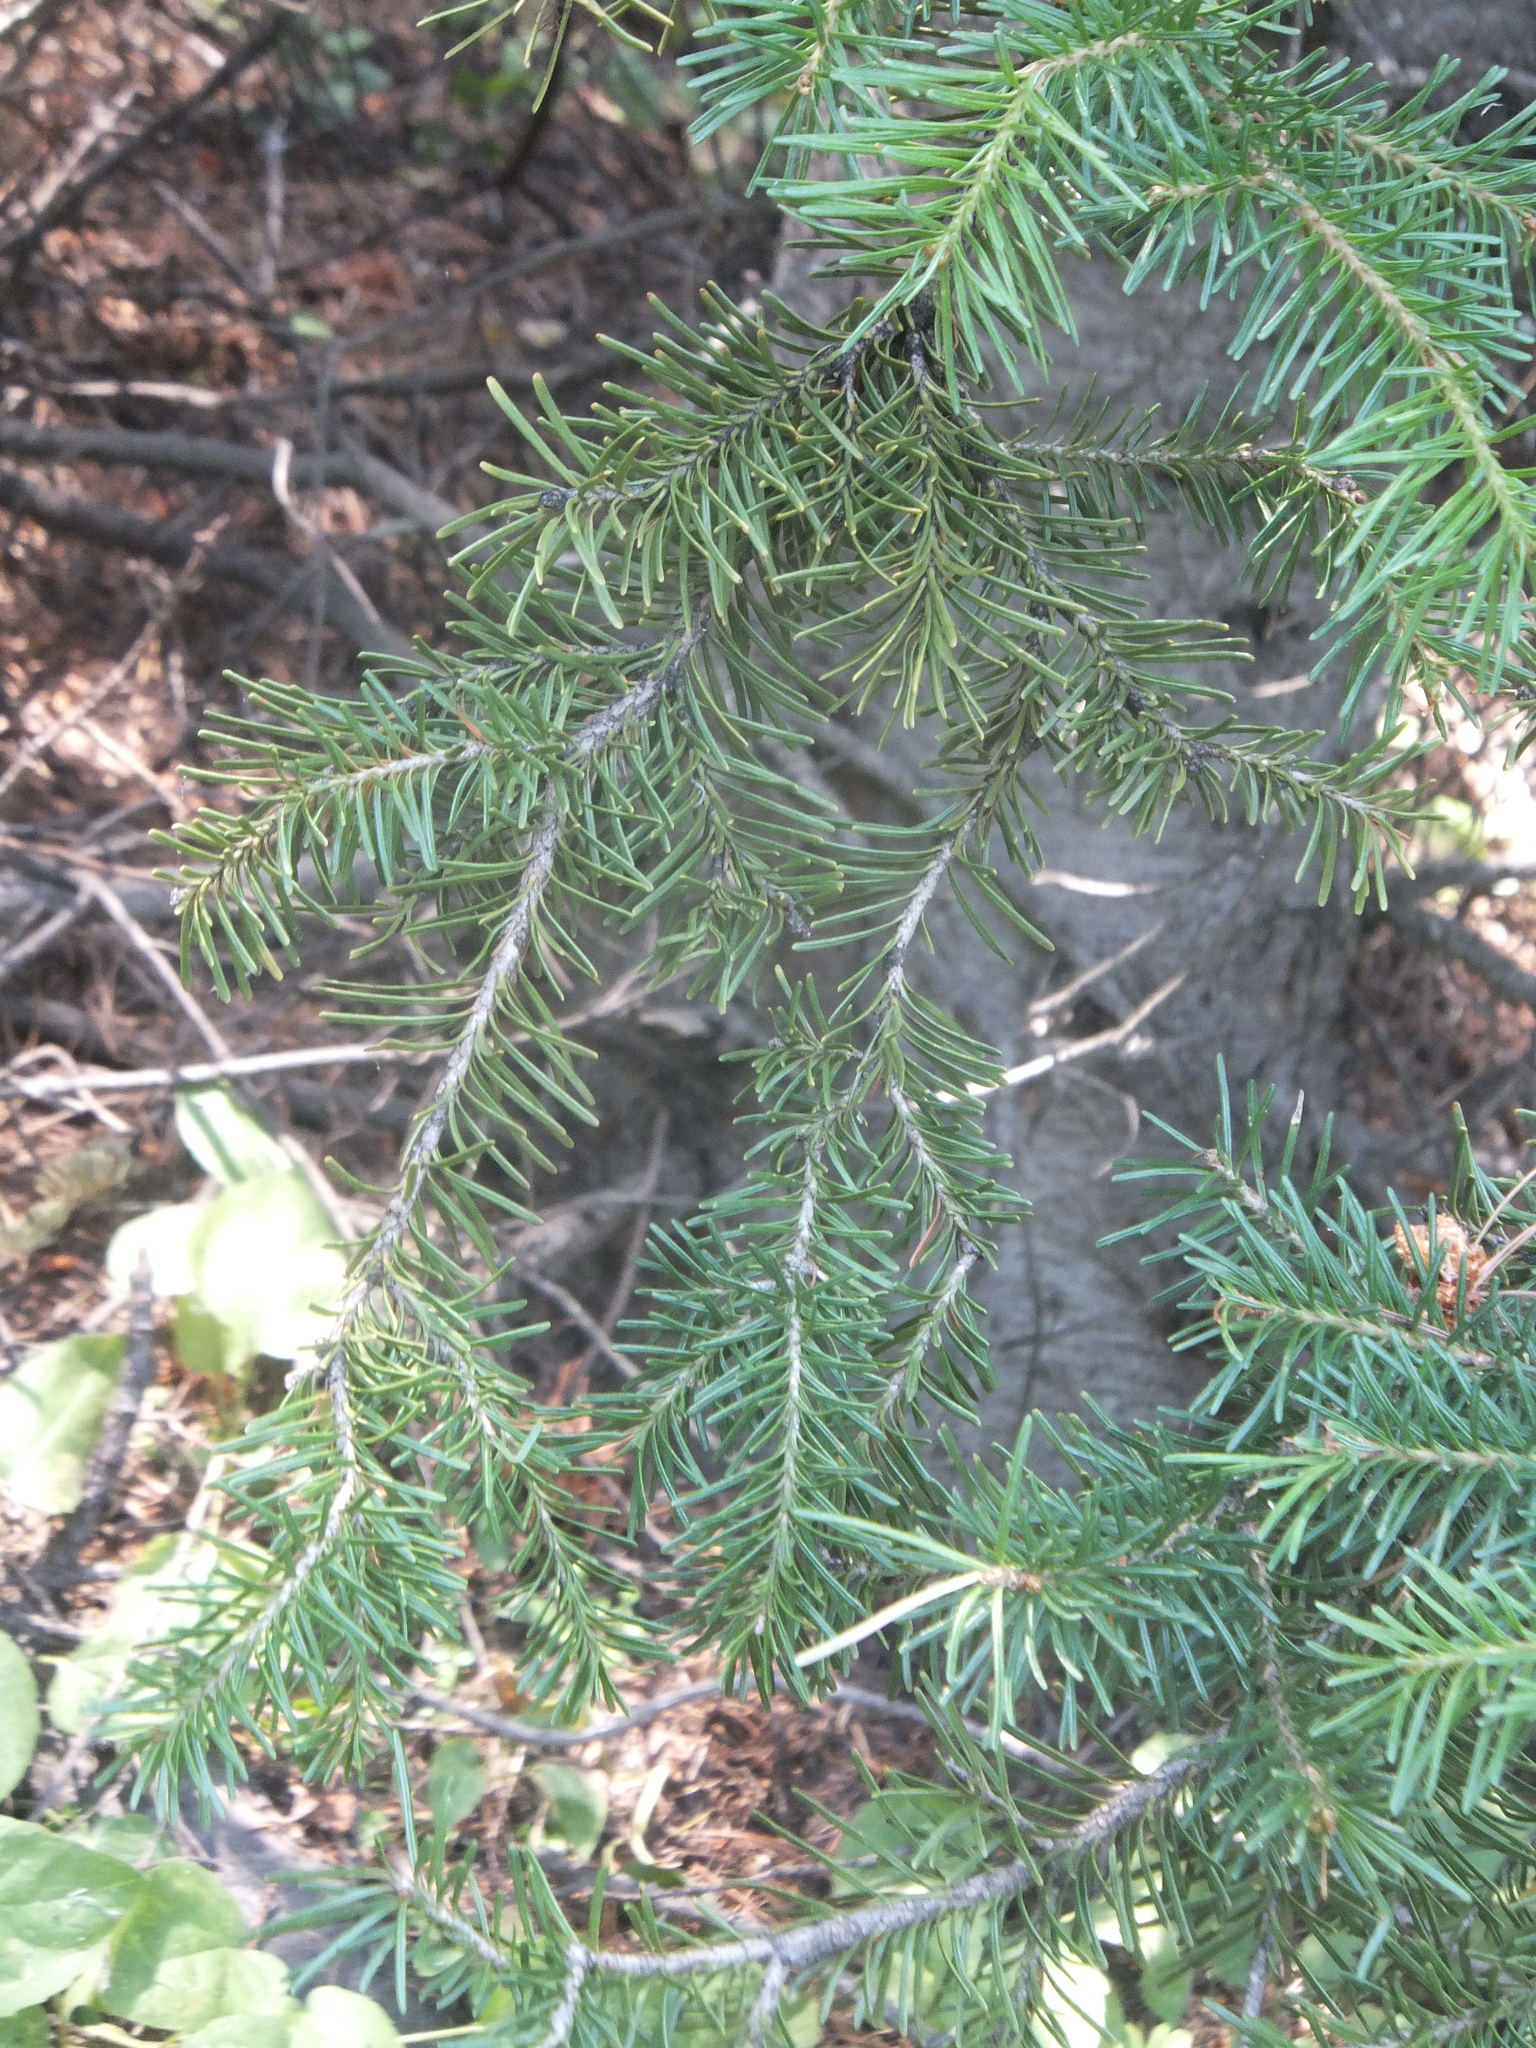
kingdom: Plantae
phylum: Tracheophyta
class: Pinopsida
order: Pinales
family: Pinaceae
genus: Pseudotsuga
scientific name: Pseudotsuga menziesii
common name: Douglas fir
